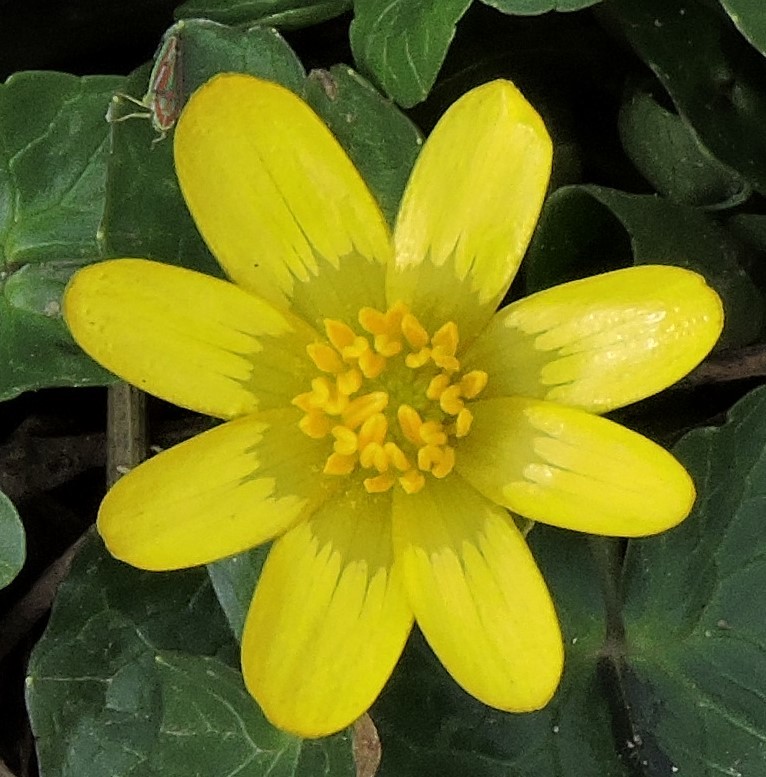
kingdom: Plantae
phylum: Tracheophyta
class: Magnoliopsida
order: Ranunculales
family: Ranunculaceae
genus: Ficaria
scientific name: Ficaria verna
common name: Lesser celandine
